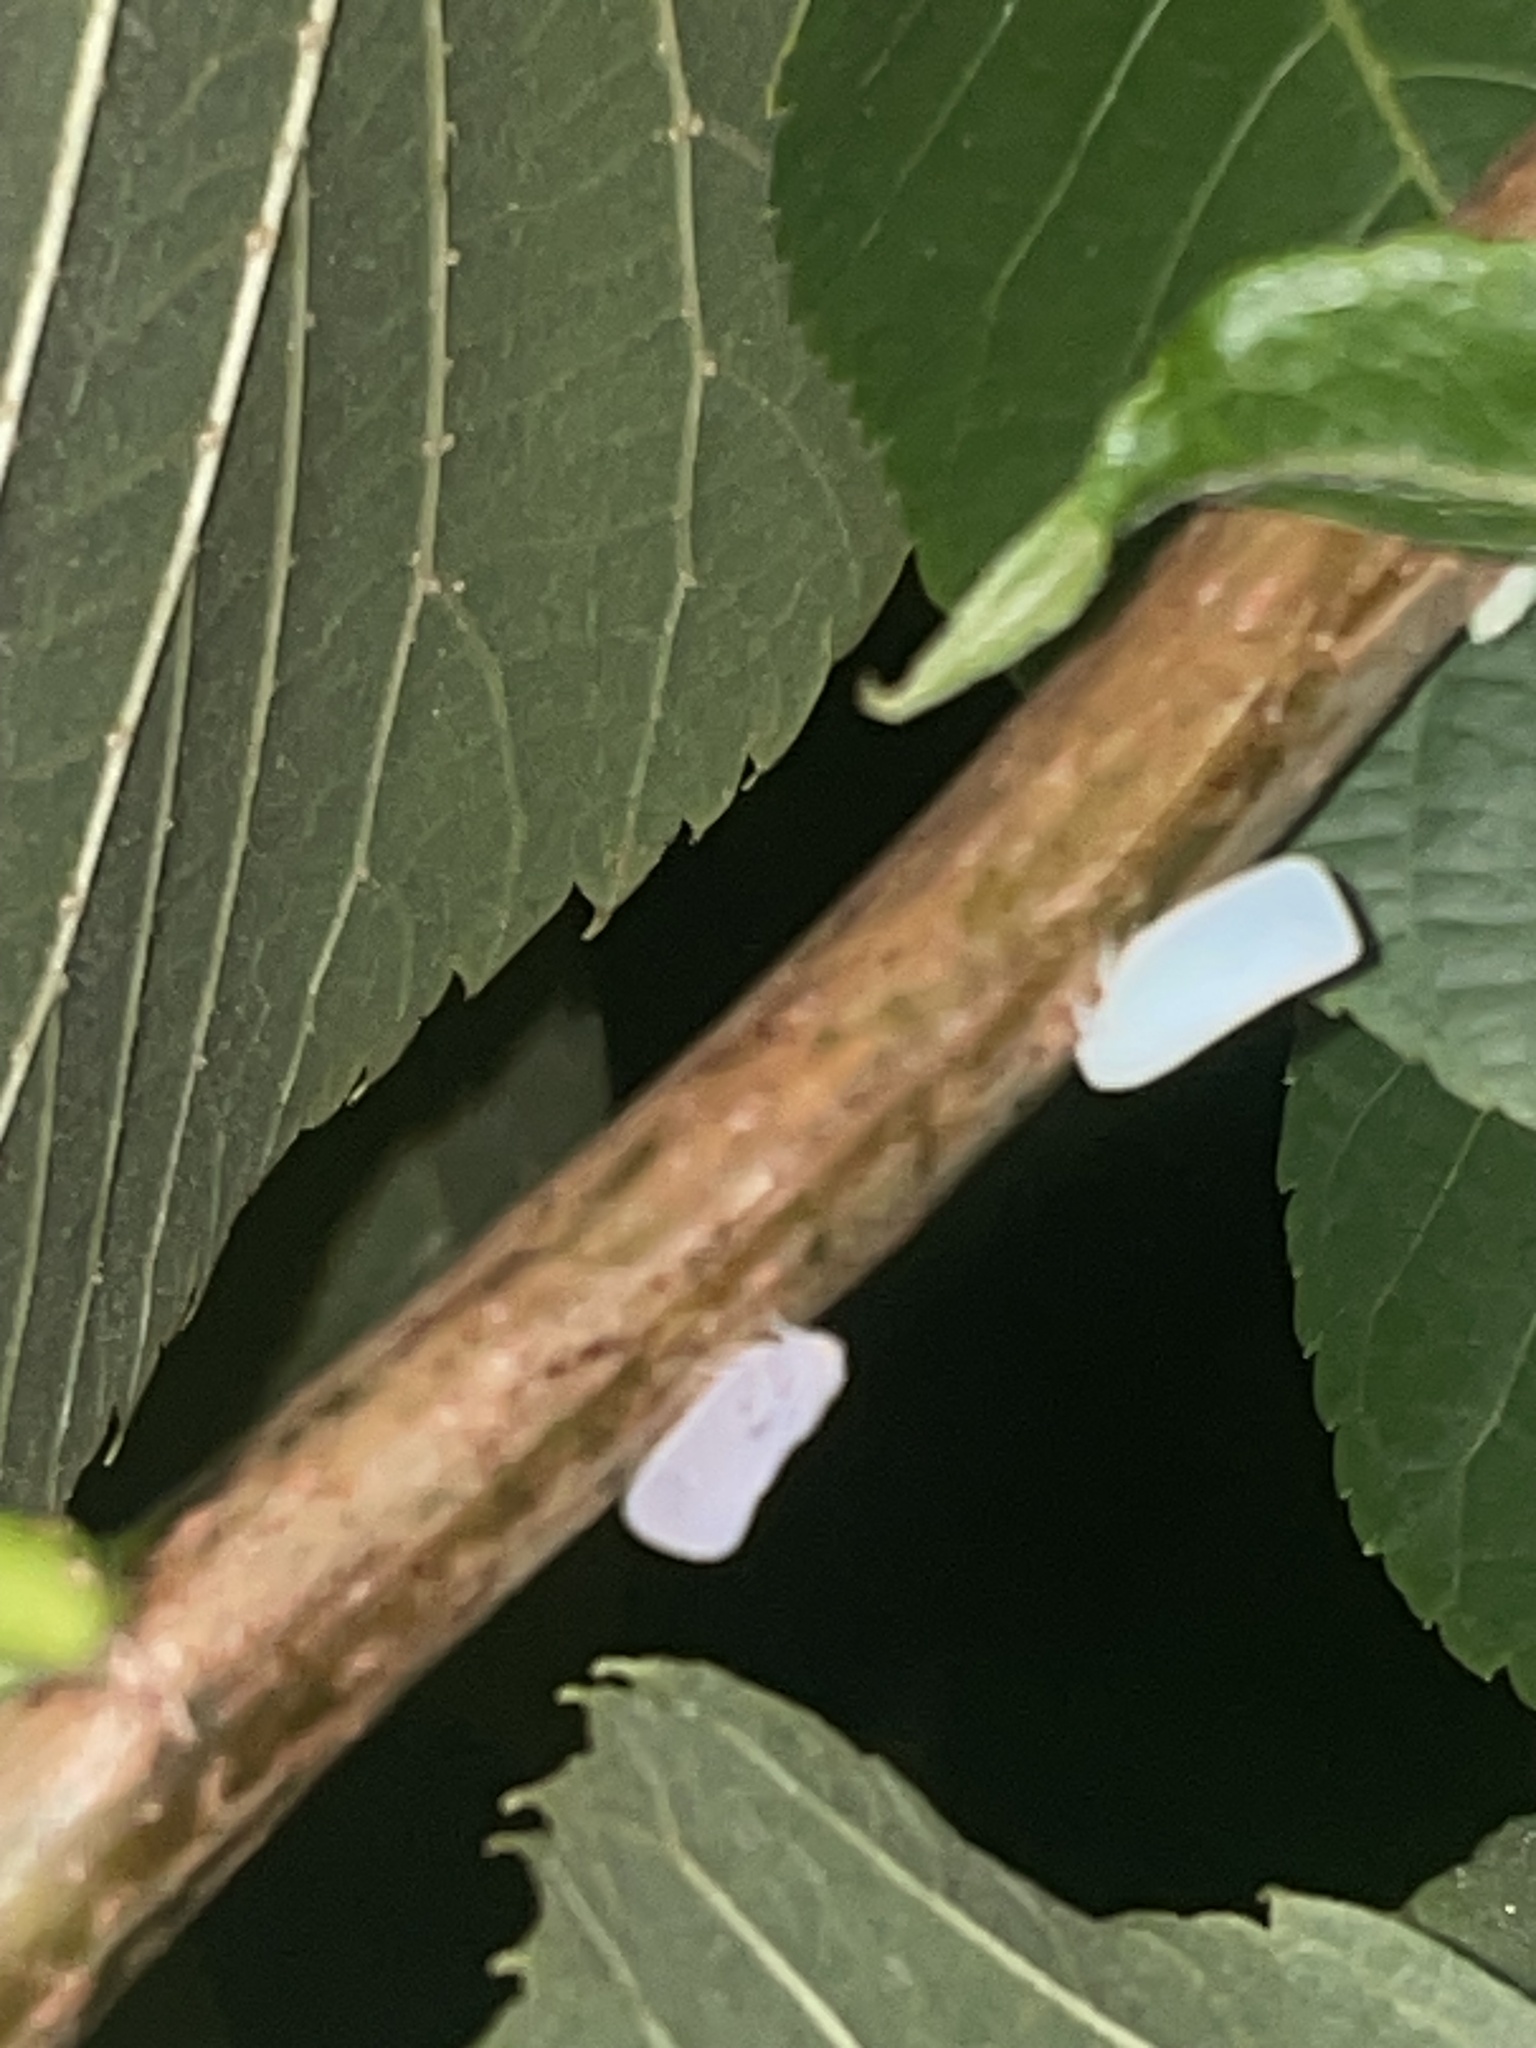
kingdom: Animalia
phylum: Arthropoda
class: Insecta
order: Hemiptera
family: Flatidae
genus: Metcalfa
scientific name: Metcalfa pruinosa
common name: Citrus flatid planthopper
